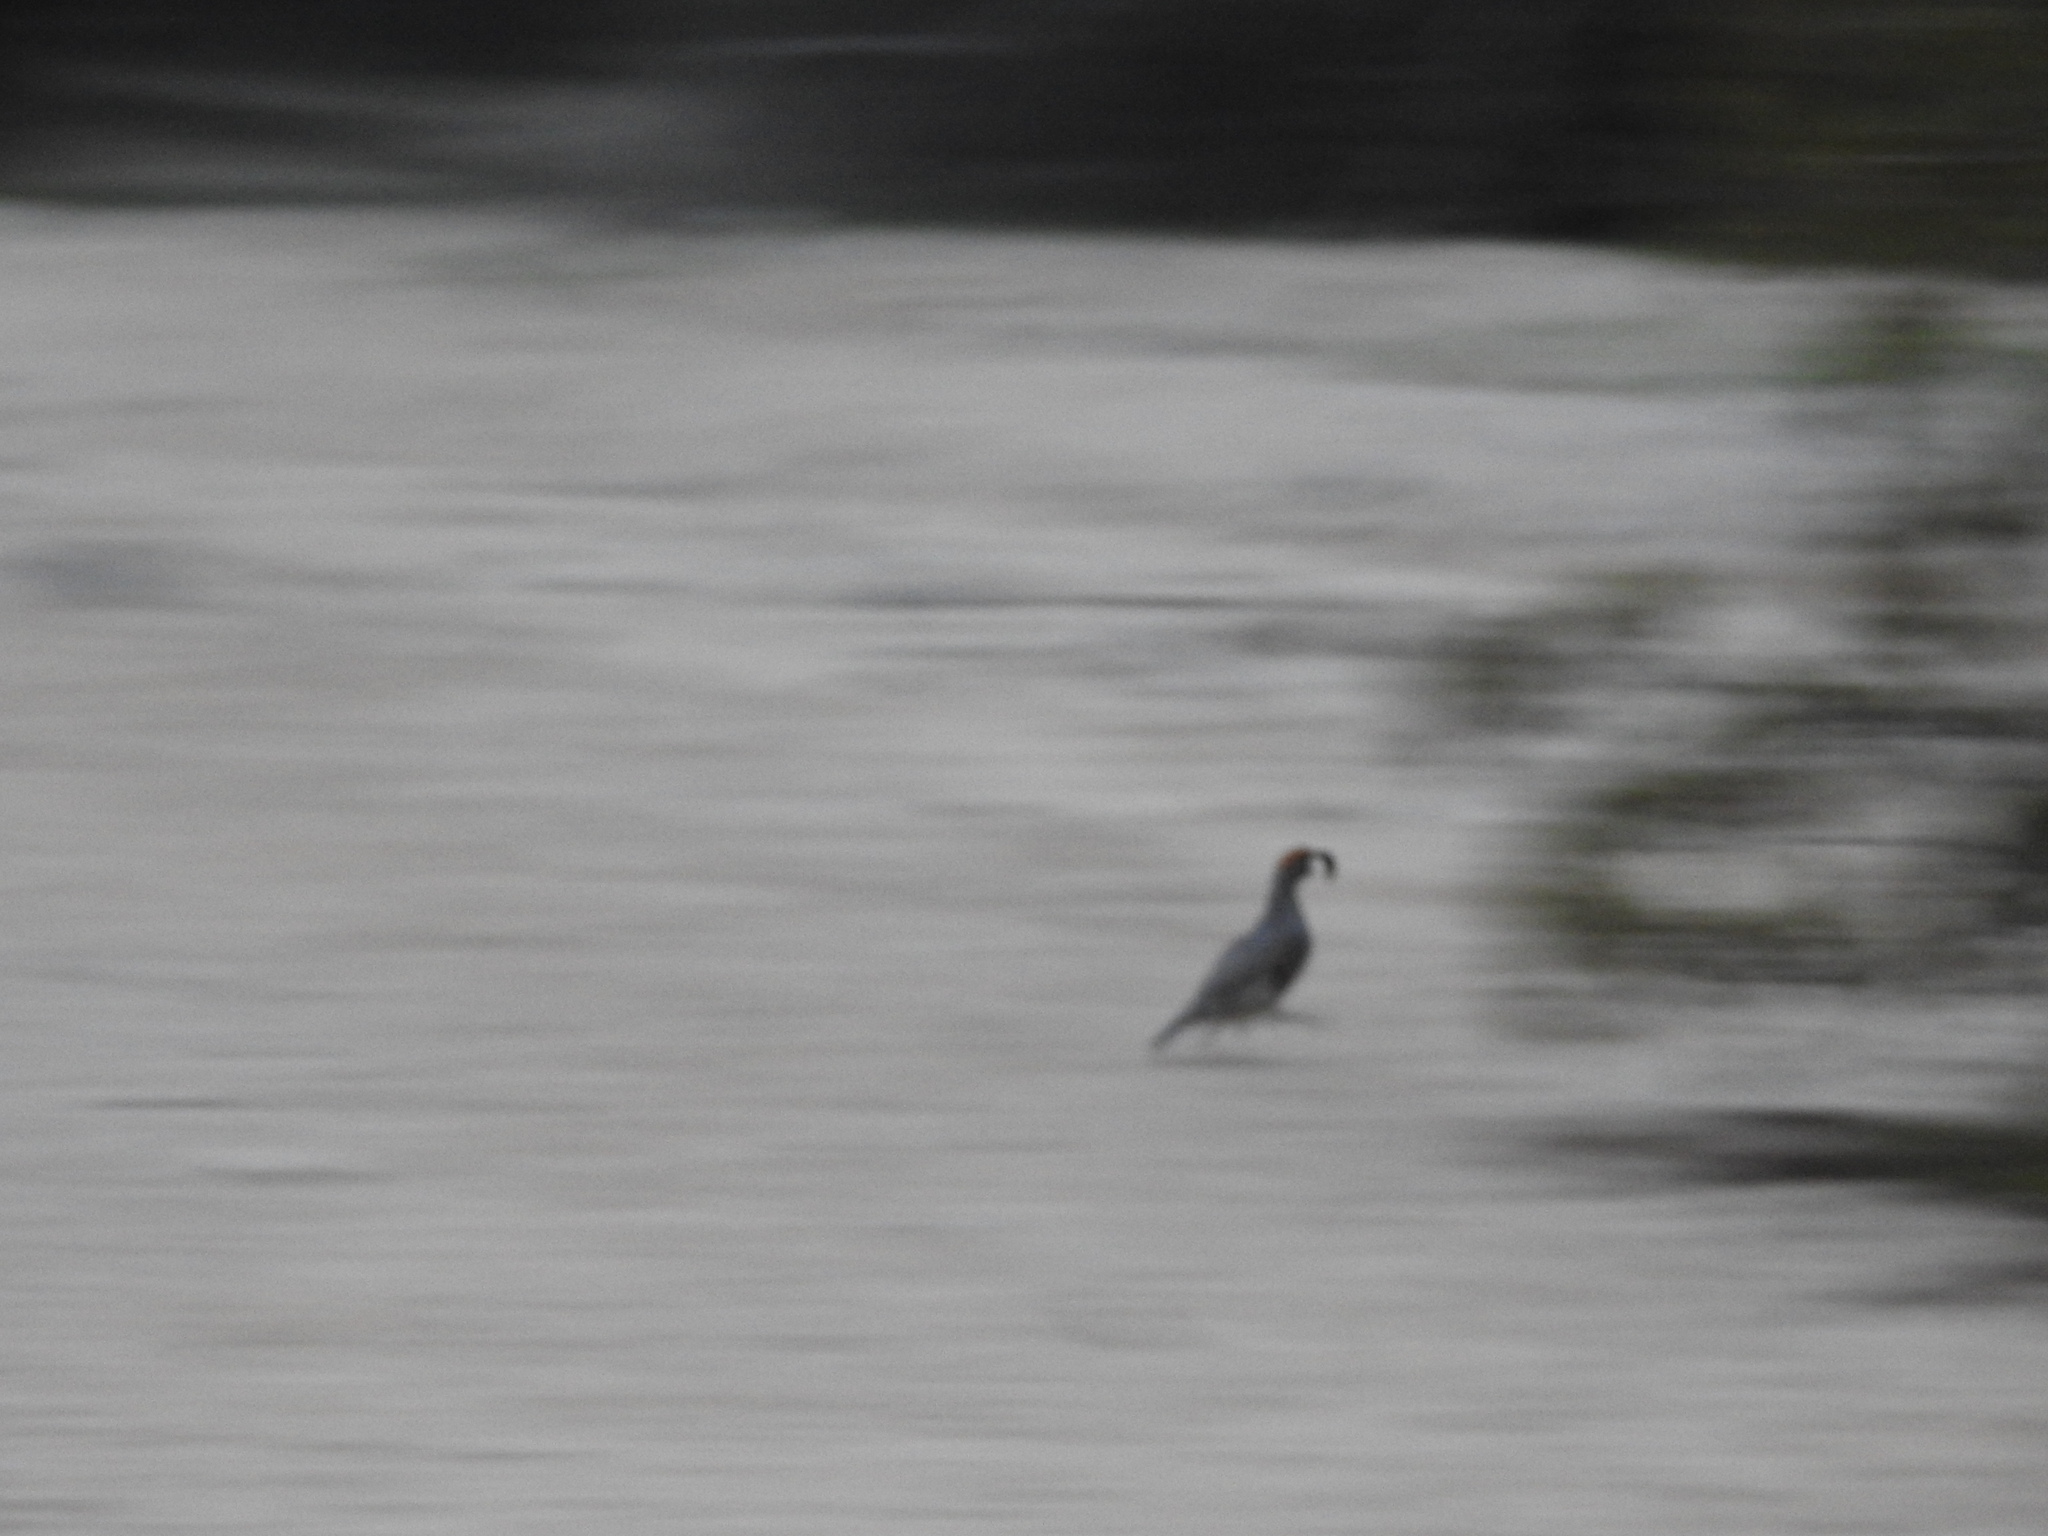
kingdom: Animalia
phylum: Chordata
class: Aves
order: Galliformes
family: Odontophoridae
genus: Callipepla
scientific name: Callipepla gambelii
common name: Gambel's quail
